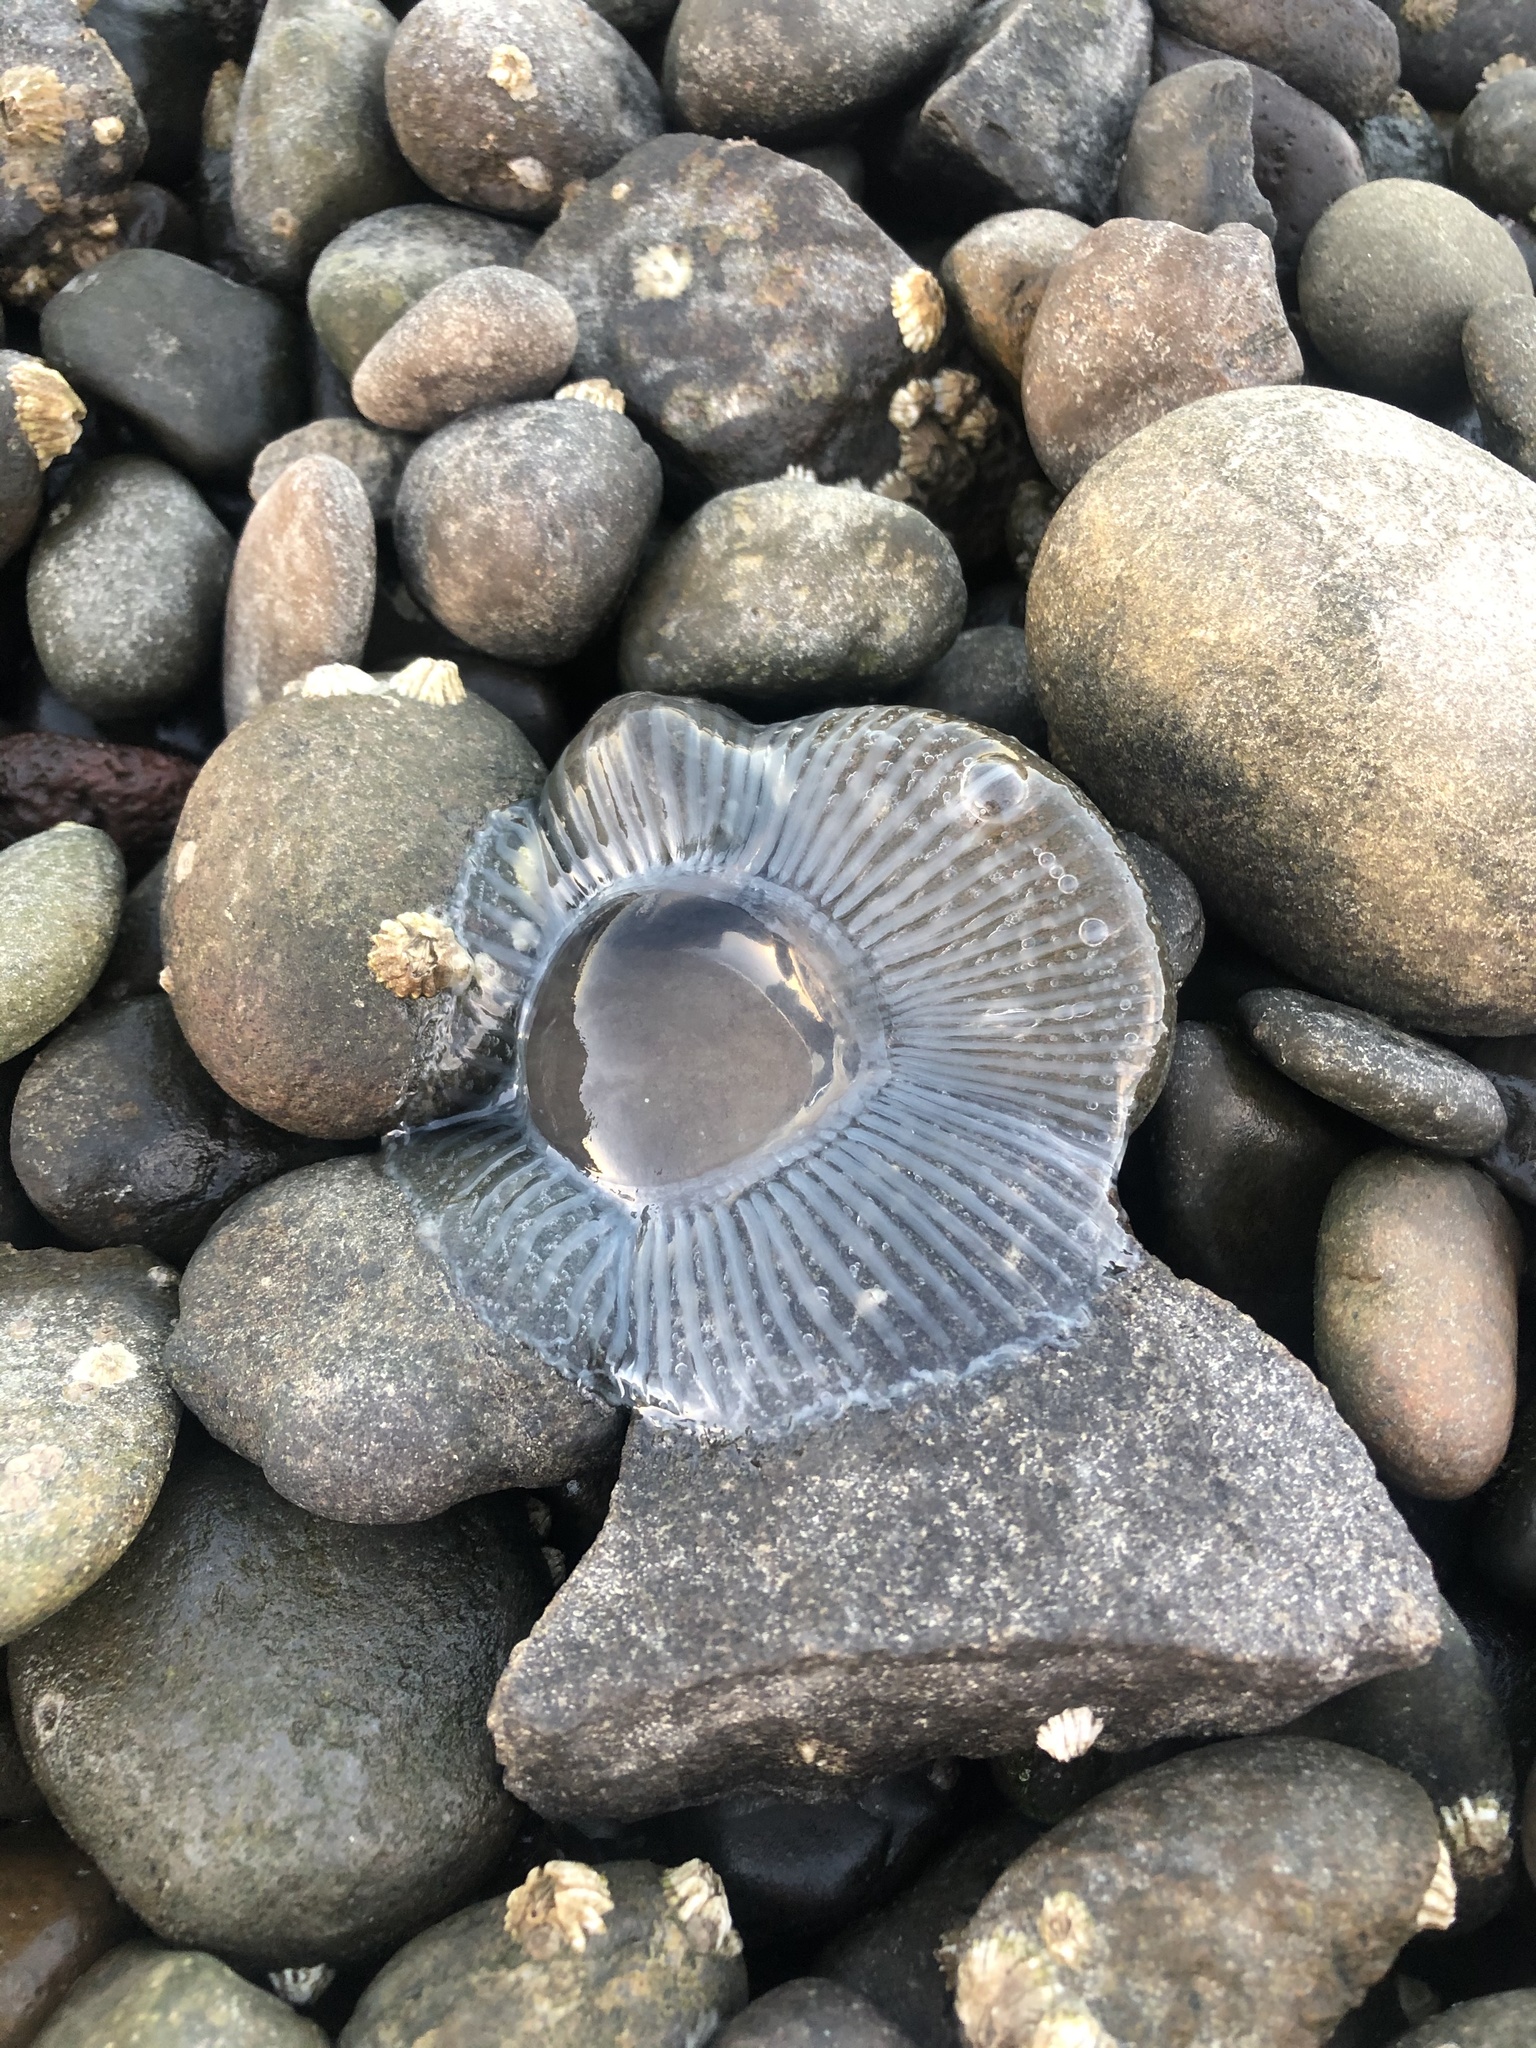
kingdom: Animalia
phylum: Cnidaria
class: Hydrozoa
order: Leptothecata
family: Aequoreidae
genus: Aequorea
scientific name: Aequorea victoria
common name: Water jellyfish
